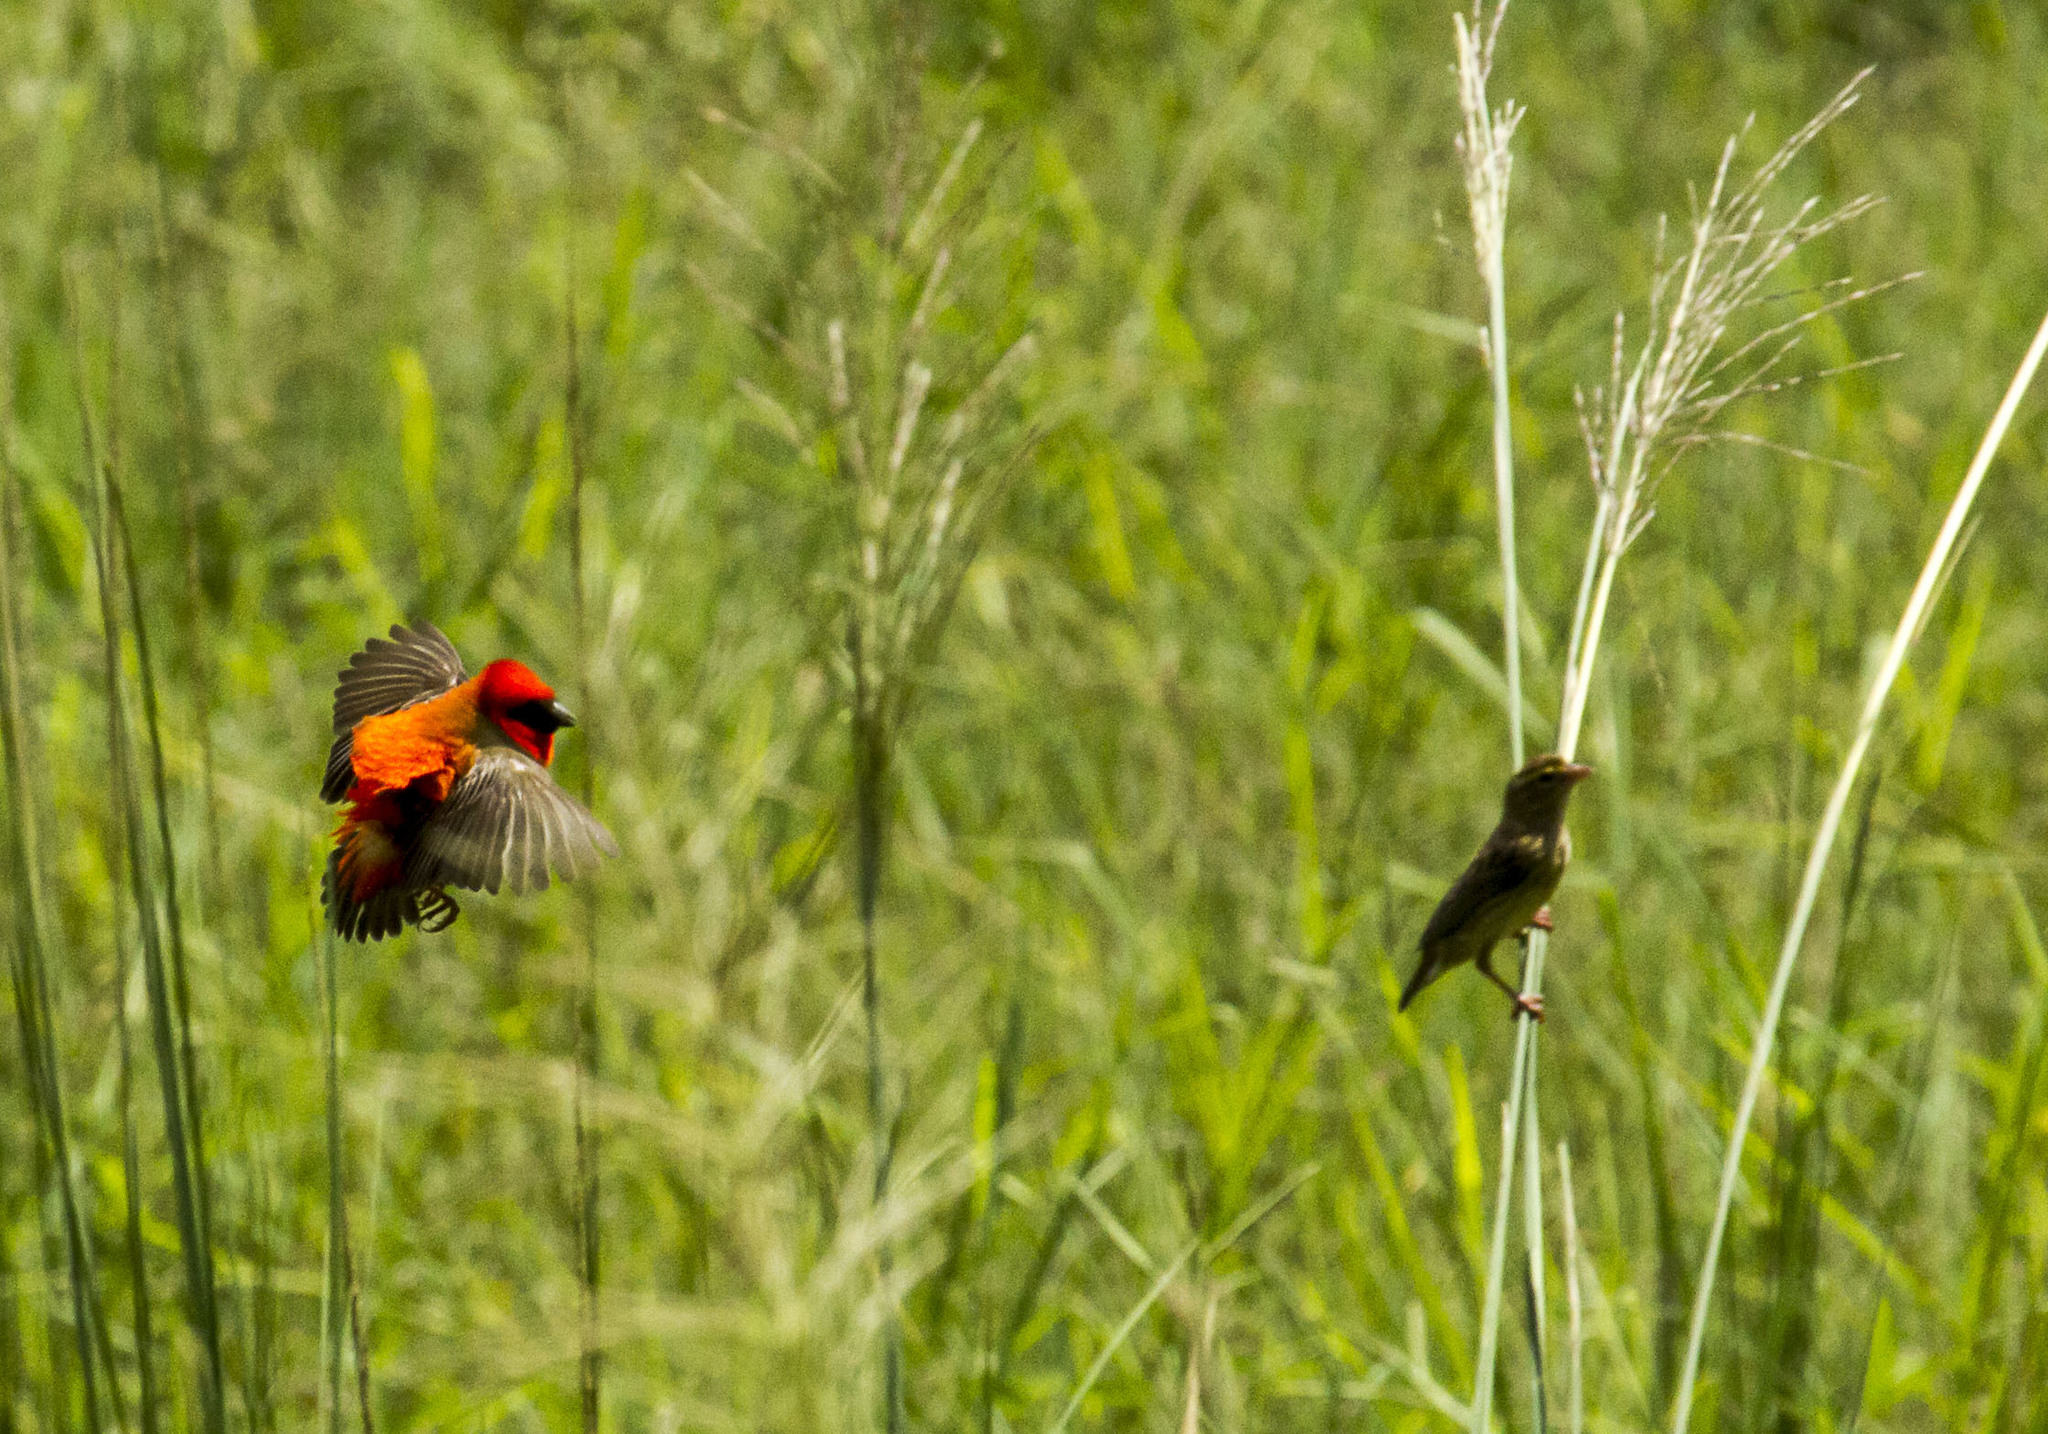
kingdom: Animalia
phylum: Chordata
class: Aves
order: Passeriformes
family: Ploceidae
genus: Euplectes
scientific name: Euplectes orix
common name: Southern red bishop
